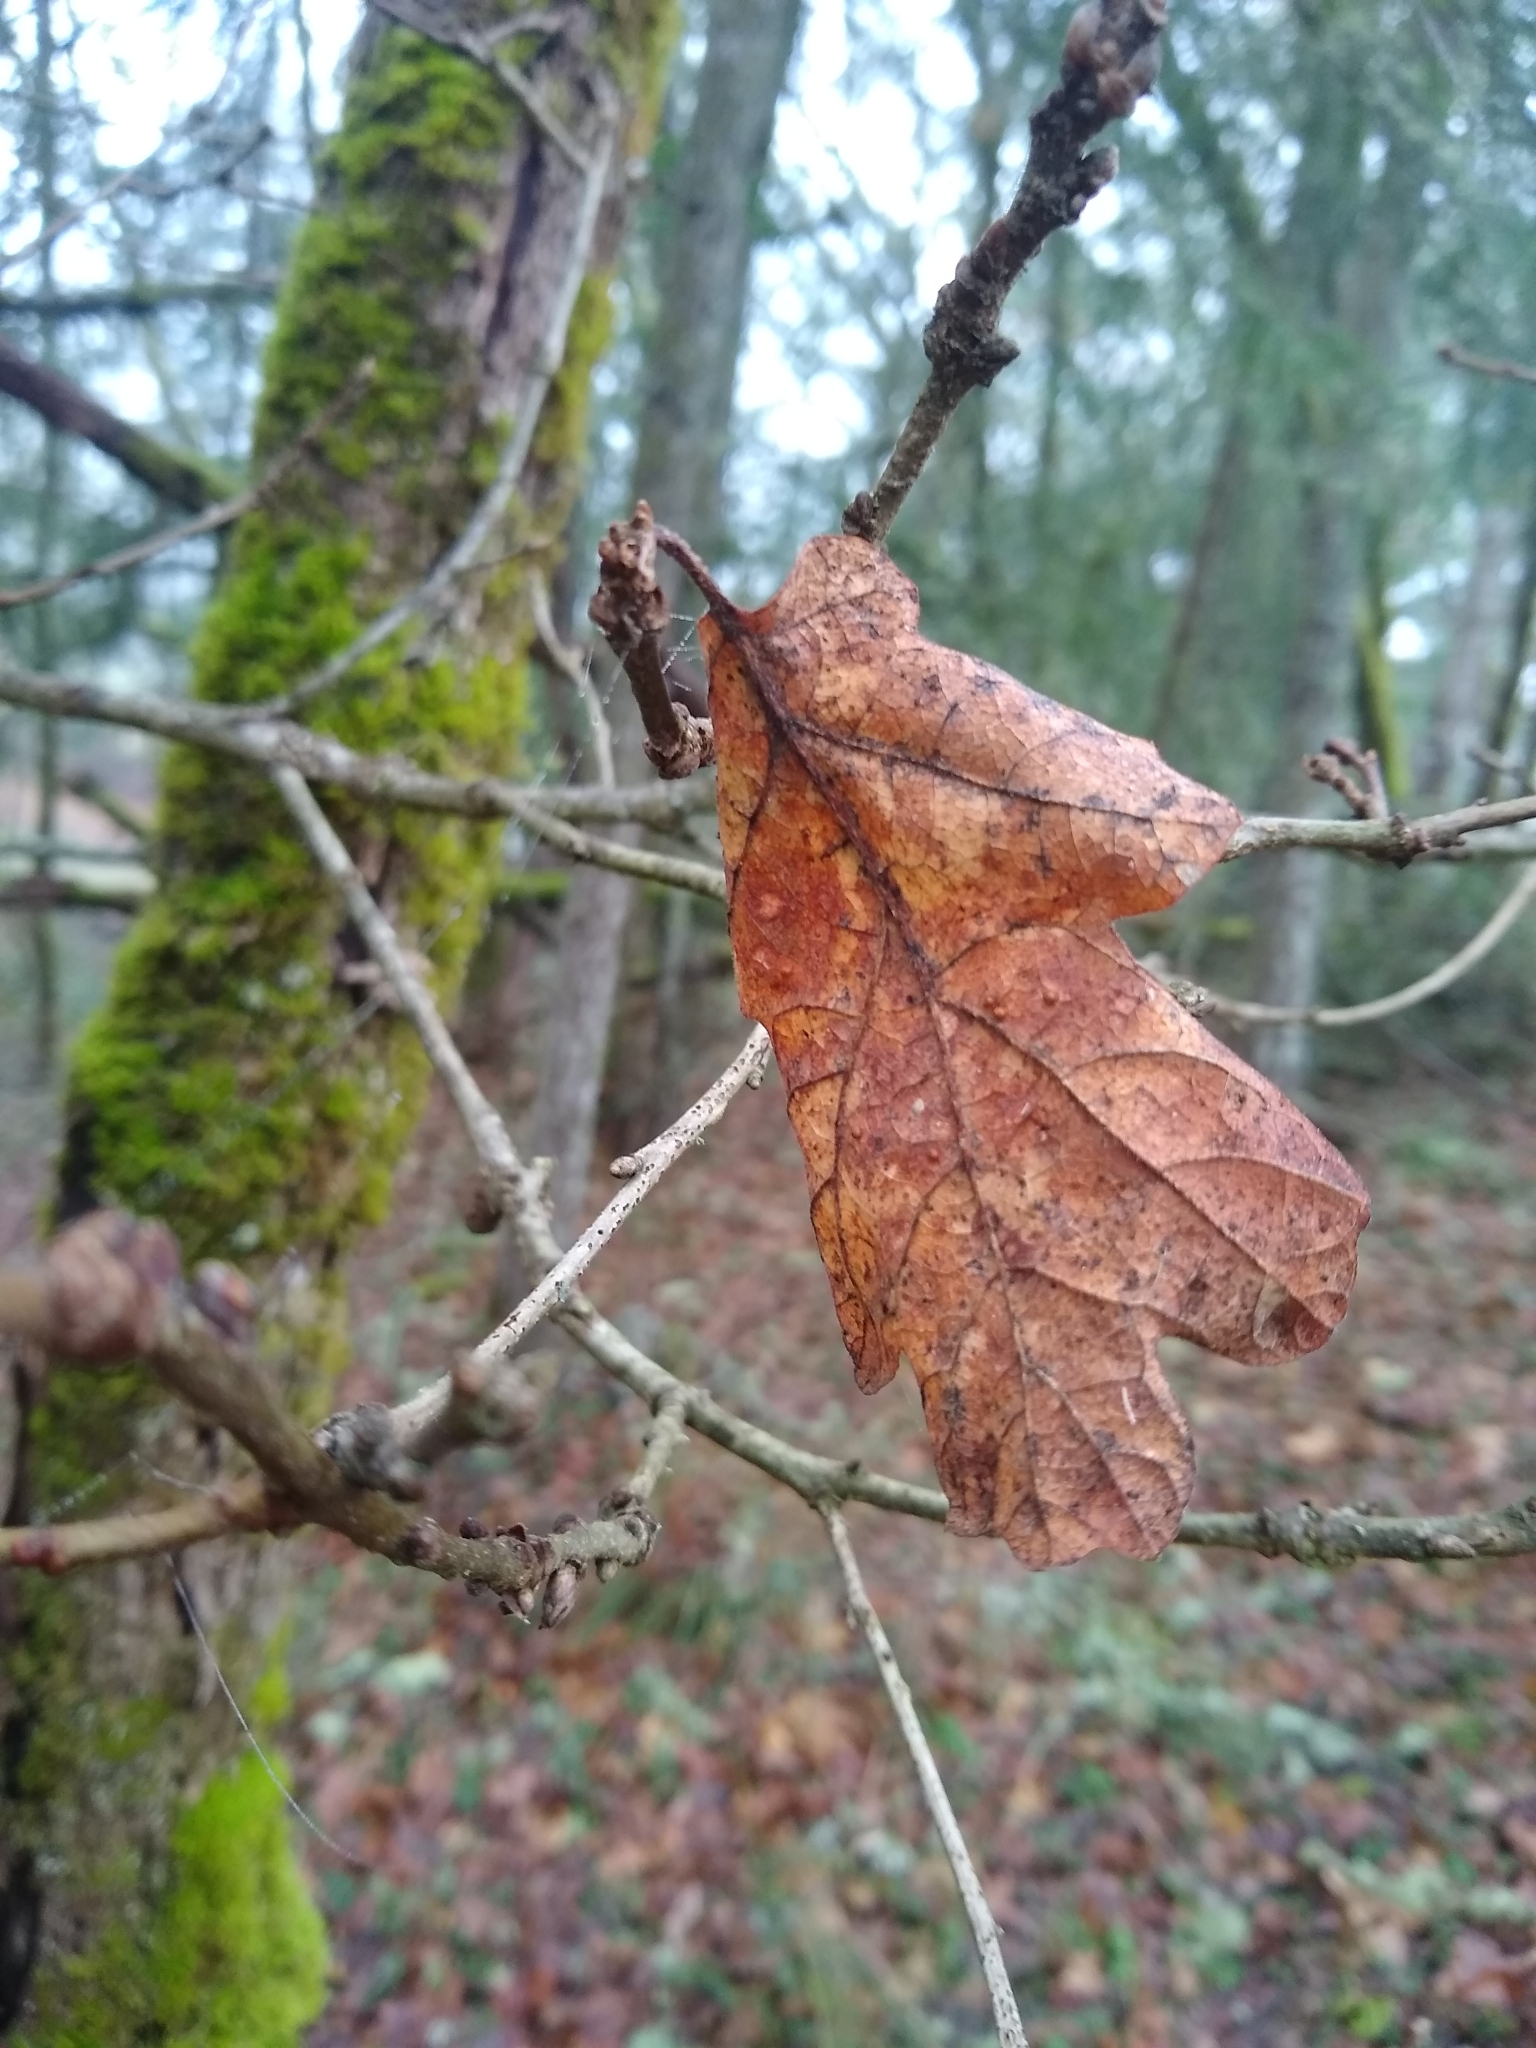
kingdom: Plantae
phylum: Tracheophyta
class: Magnoliopsida
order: Fagales
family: Fagaceae
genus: Quercus
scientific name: Quercus garryana
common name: Garry oak
